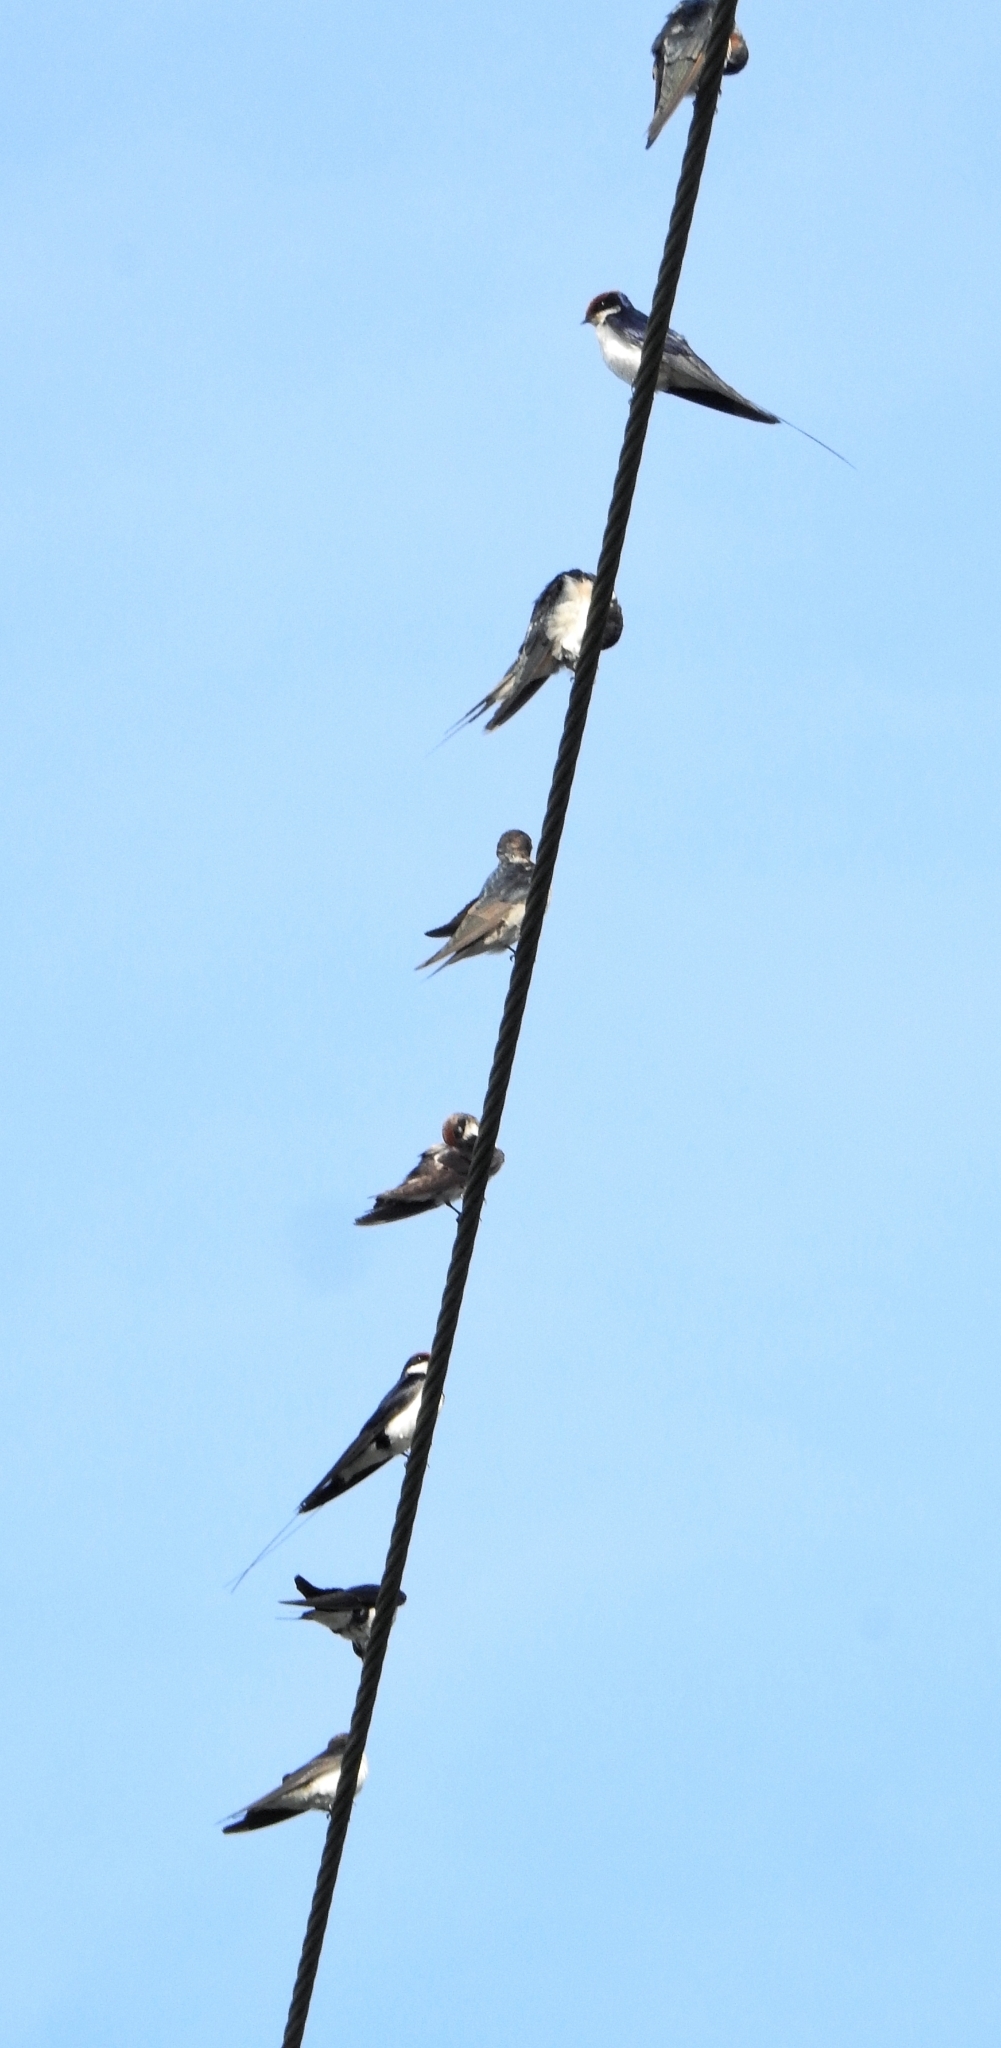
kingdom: Animalia
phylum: Chordata
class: Aves
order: Passeriformes
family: Hirundinidae
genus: Hirundo
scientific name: Hirundo smithii
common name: Wire-tailed swallow
